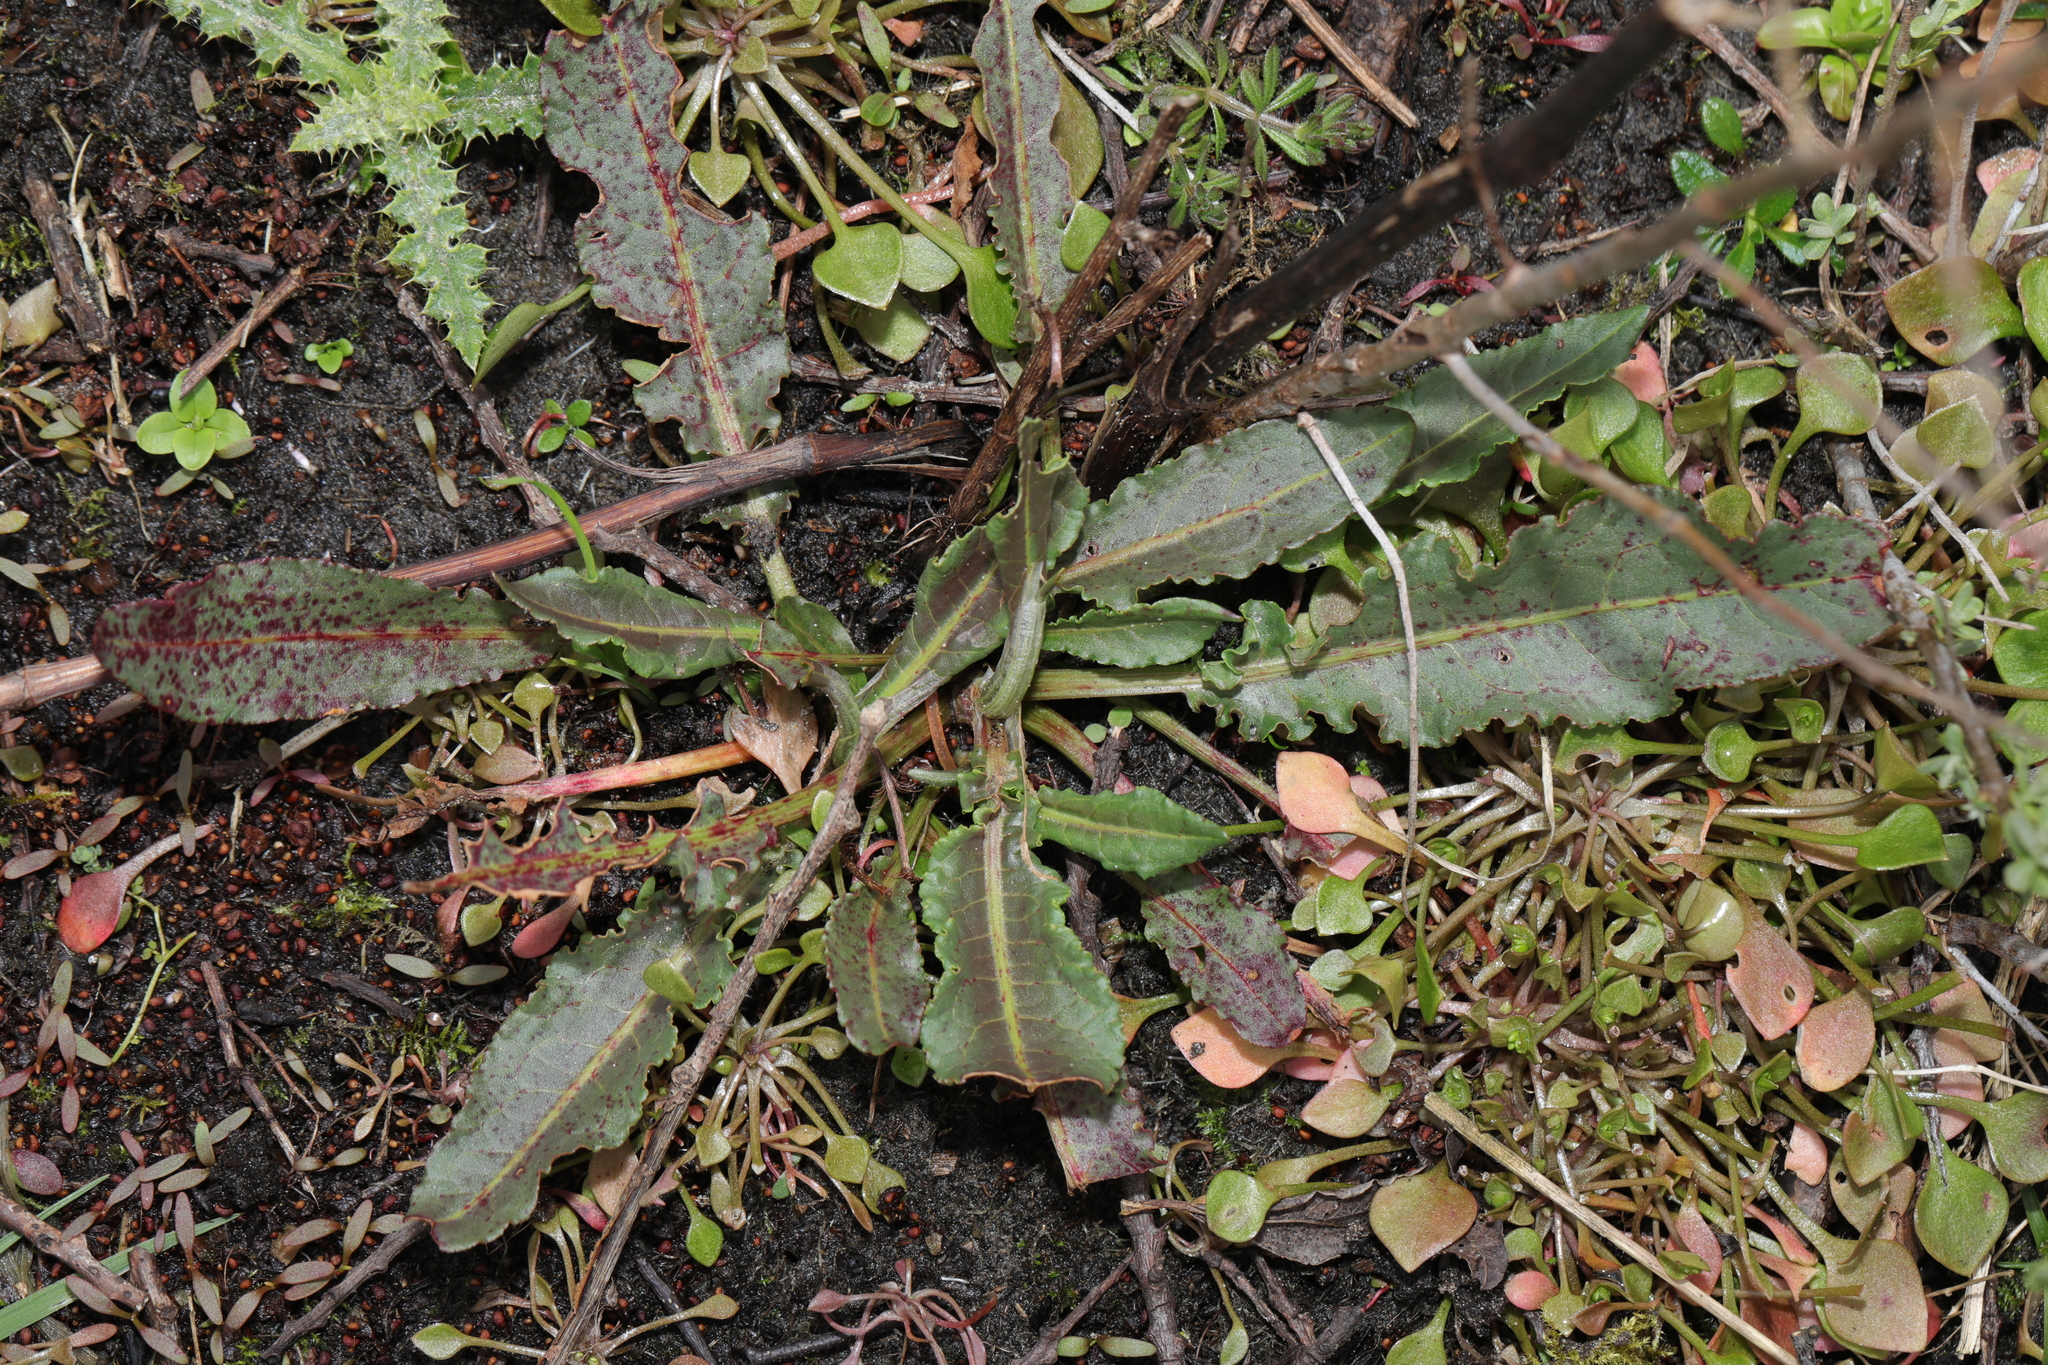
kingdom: Plantae
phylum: Tracheophyta
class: Magnoliopsida
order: Caryophyllales
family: Polygonaceae
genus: Rumex
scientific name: Rumex crispus
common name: Curled dock
